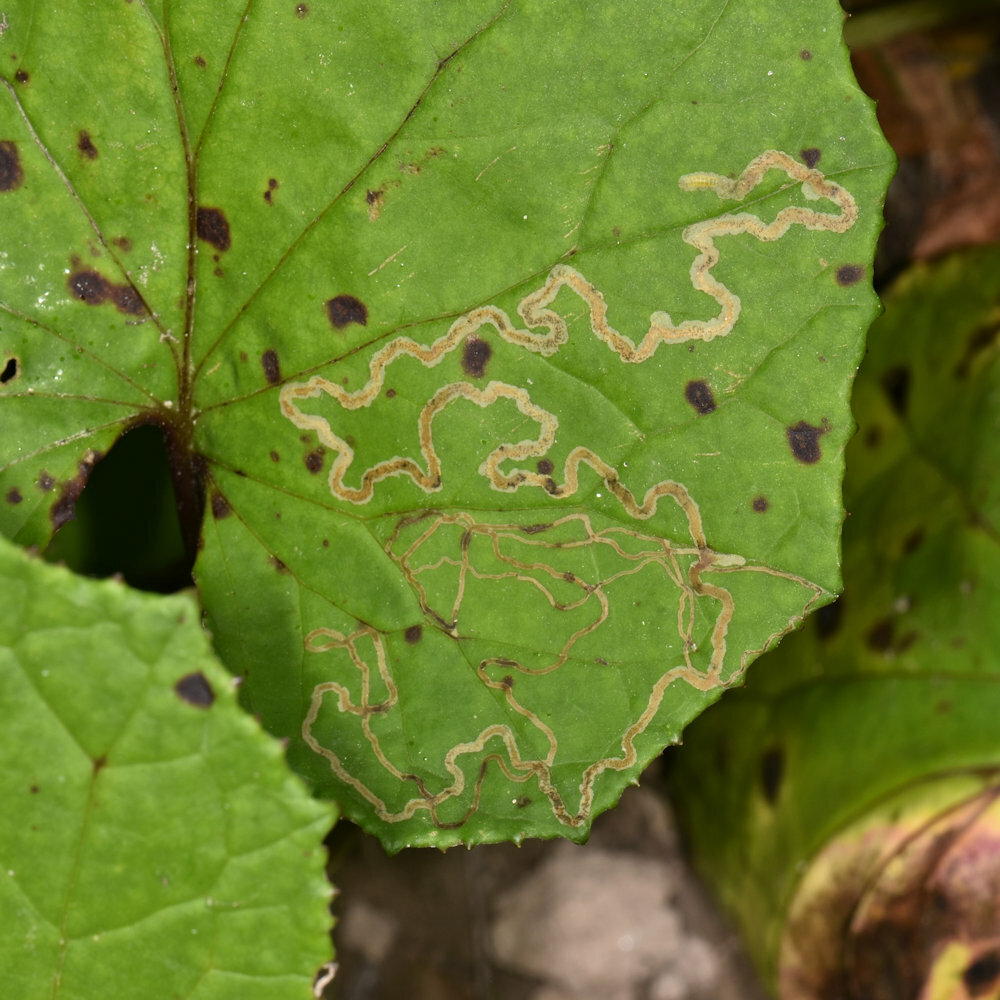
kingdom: Animalia
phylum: Arthropoda
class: Insecta
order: Lepidoptera
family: Gracillariidae
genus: Phyllocnistis
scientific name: Phyllocnistis insignis
